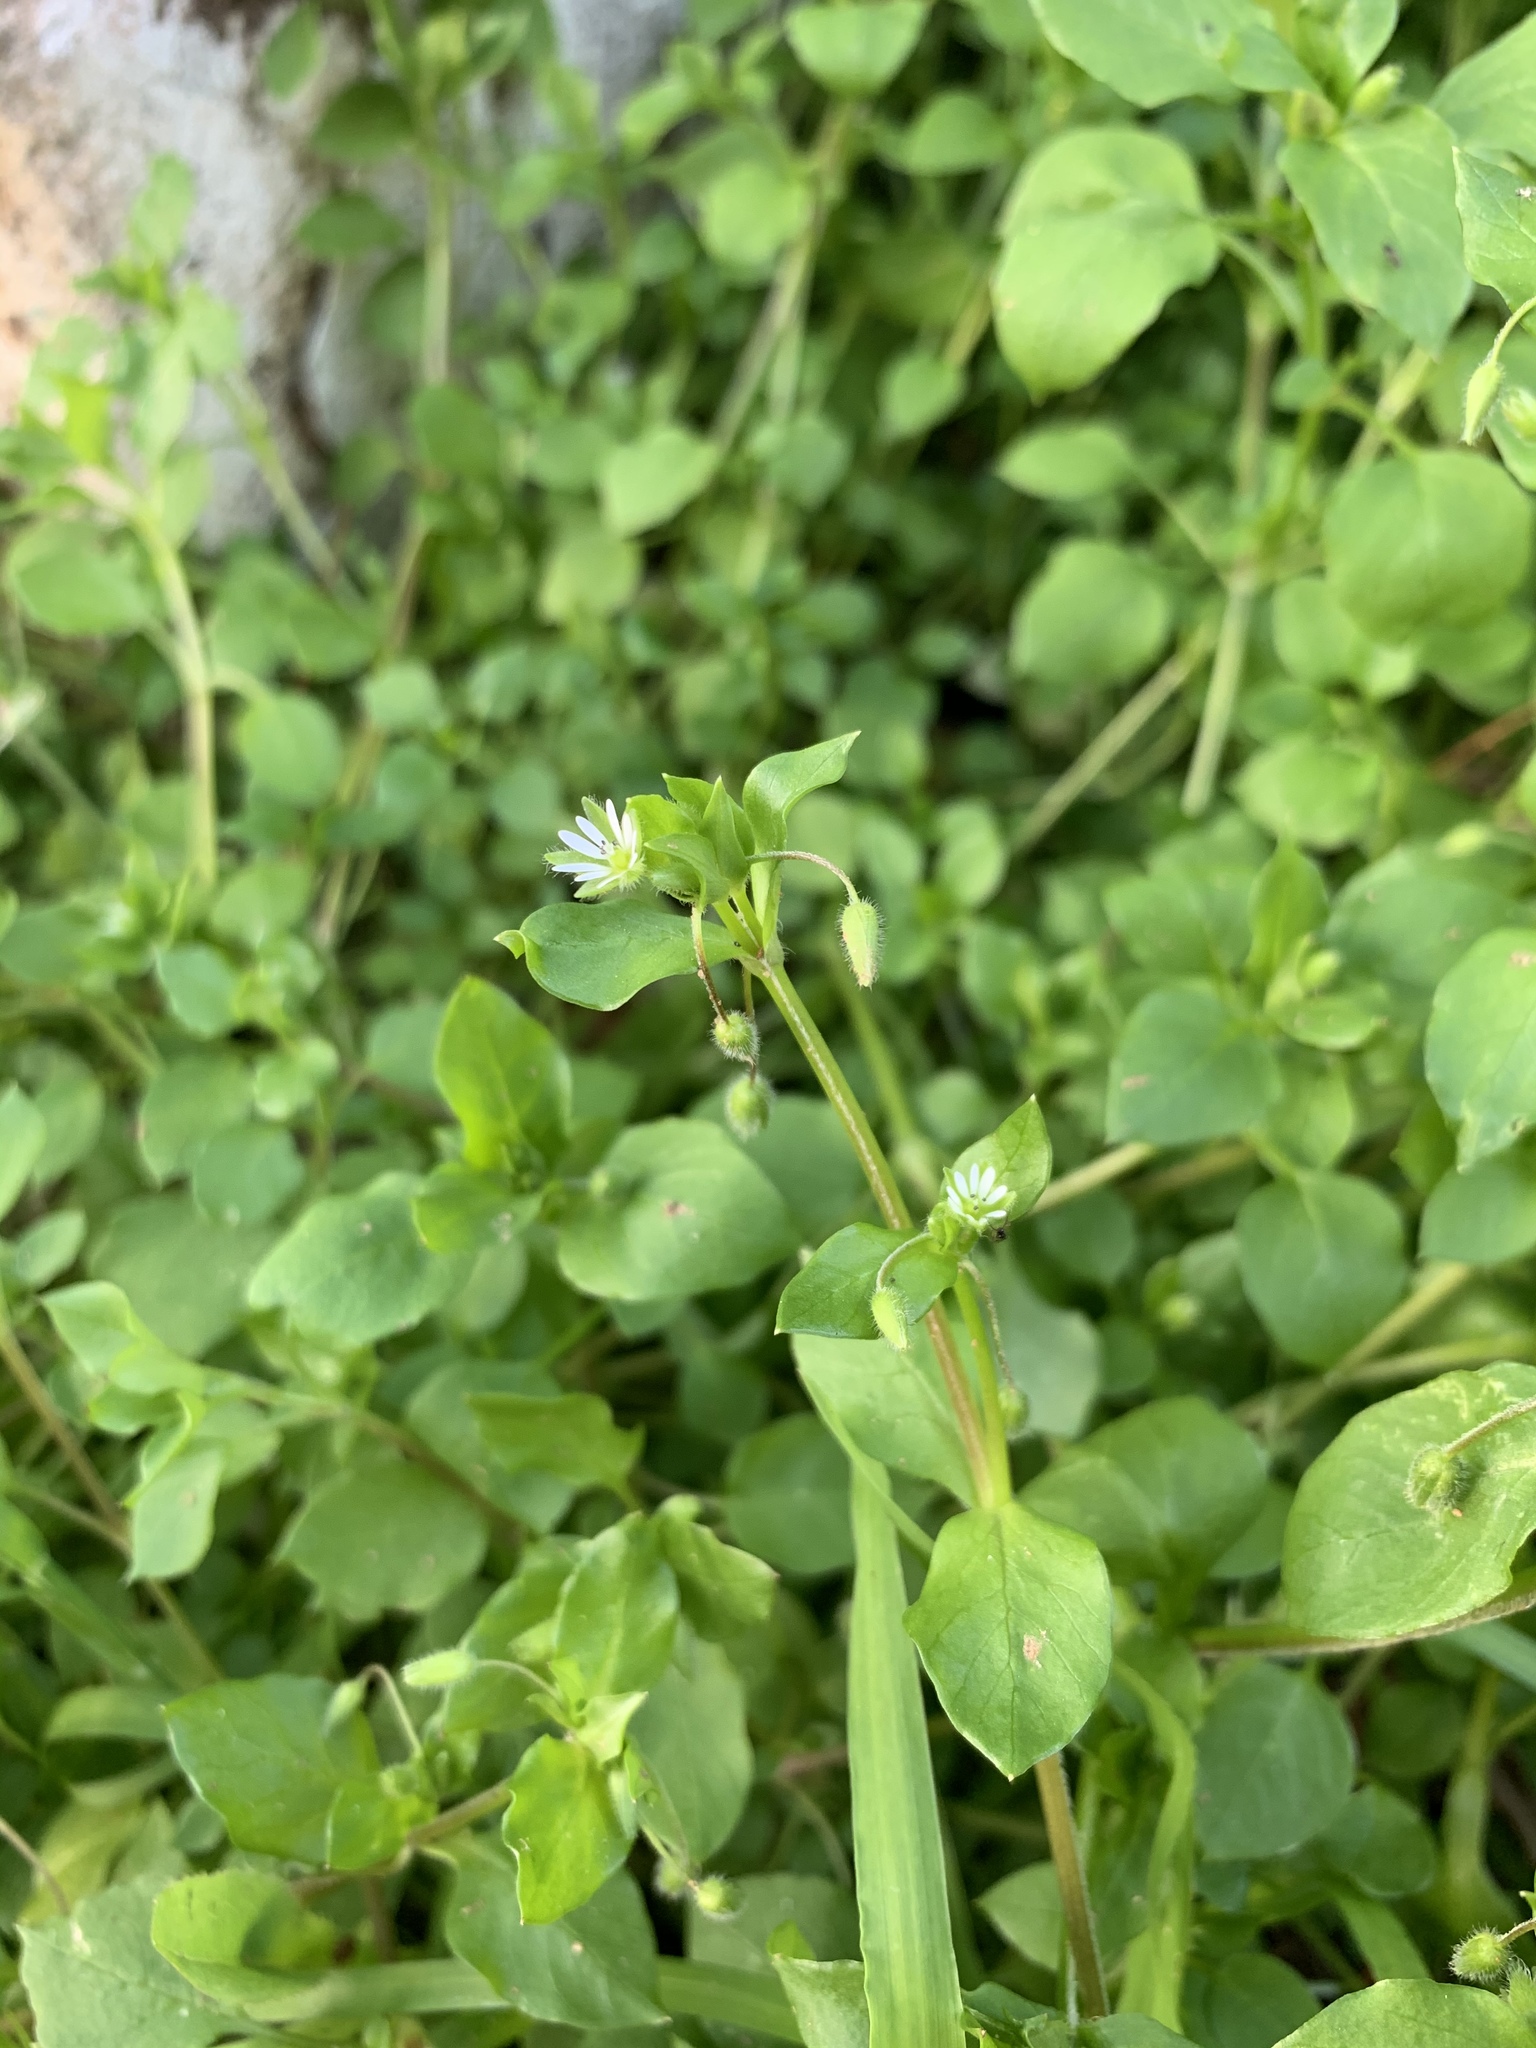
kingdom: Plantae
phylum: Tracheophyta
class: Magnoliopsida
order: Caryophyllales
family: Caryophyllaceae
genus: Stellaria
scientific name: Stellaria media
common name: Common chickweed
